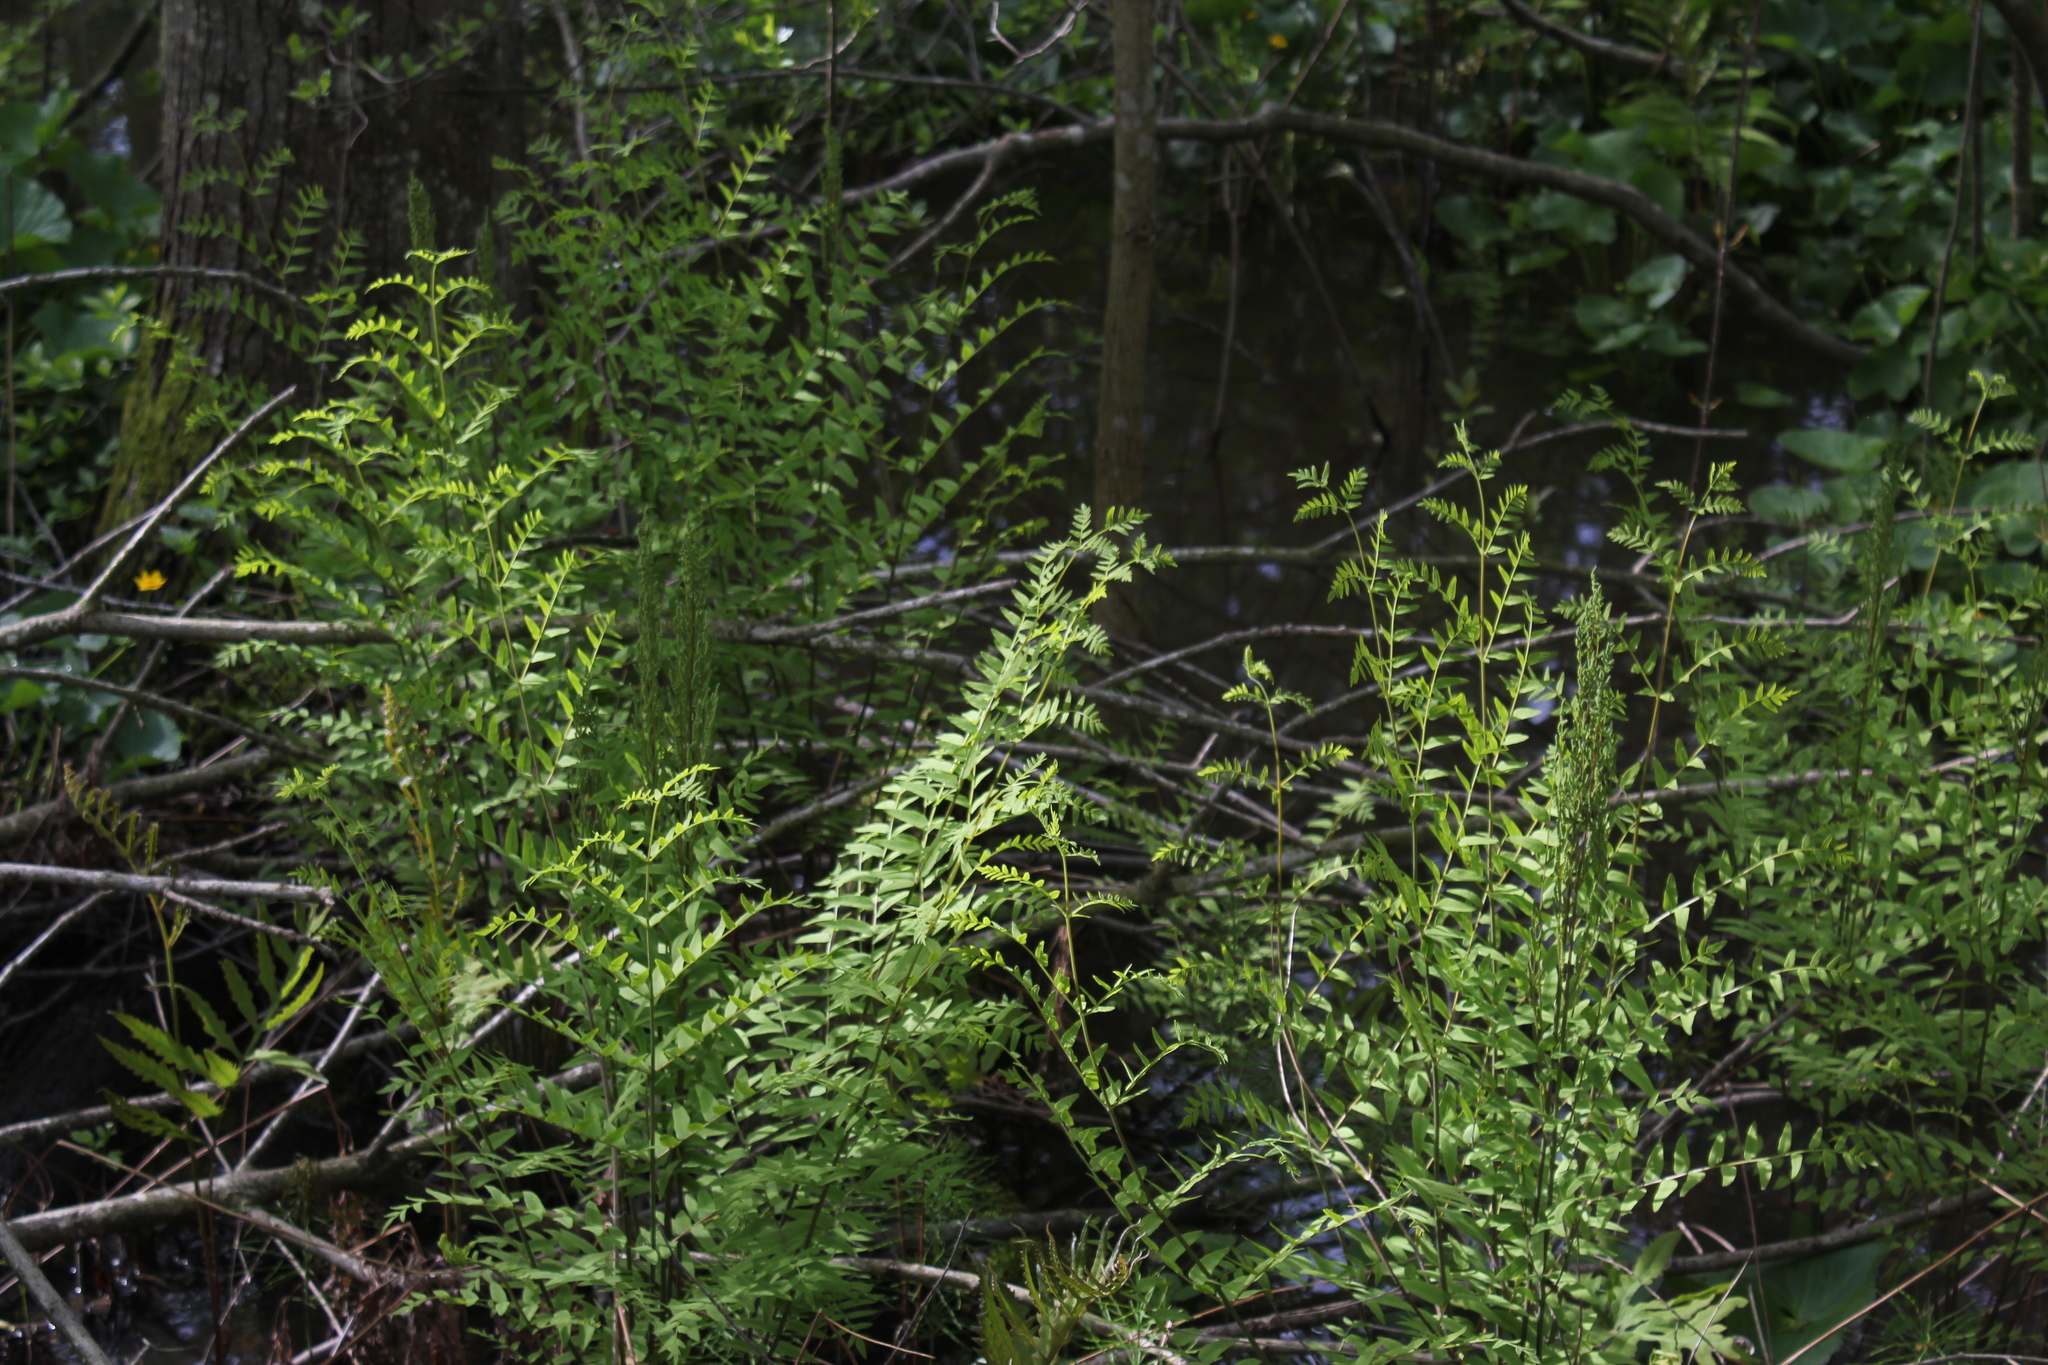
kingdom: Plantae
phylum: Tracheophyta
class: Polypodiopsida
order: Osmundales
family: Osmundaceae
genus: Osmunda
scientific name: Osmunda spectabilis
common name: American royal fern
